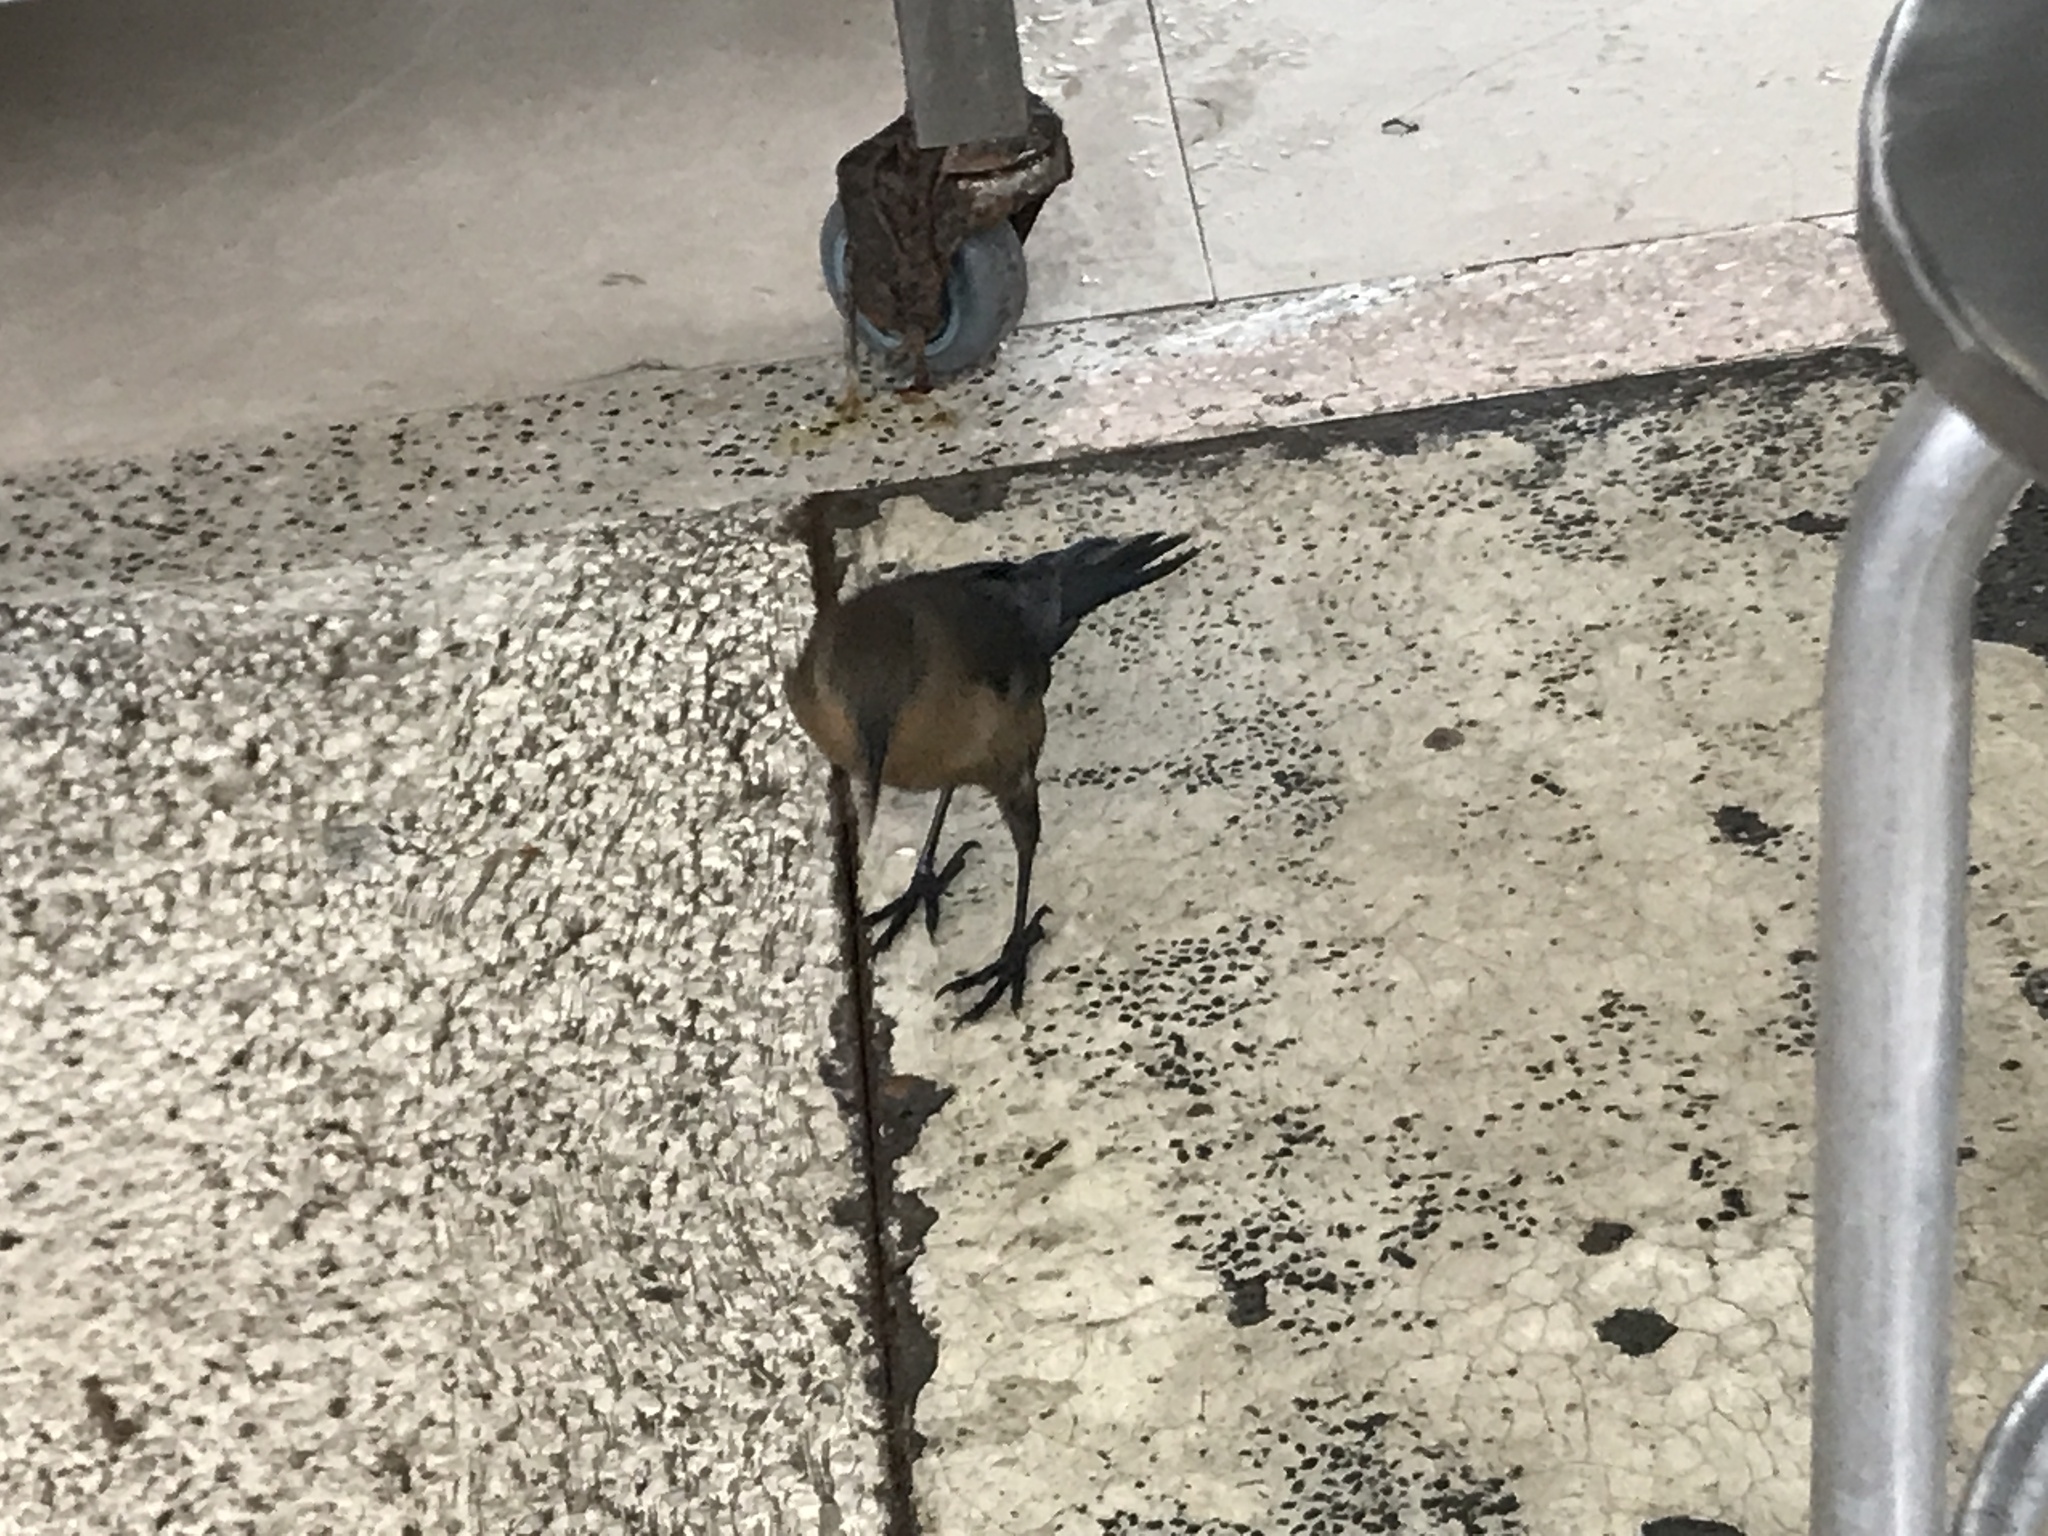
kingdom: Animalia
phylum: Chordata
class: Aves
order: Passeriformes
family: Icteridae
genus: Quiscalus
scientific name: Quiscalus mexicanus
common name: Great-tailed grackle
